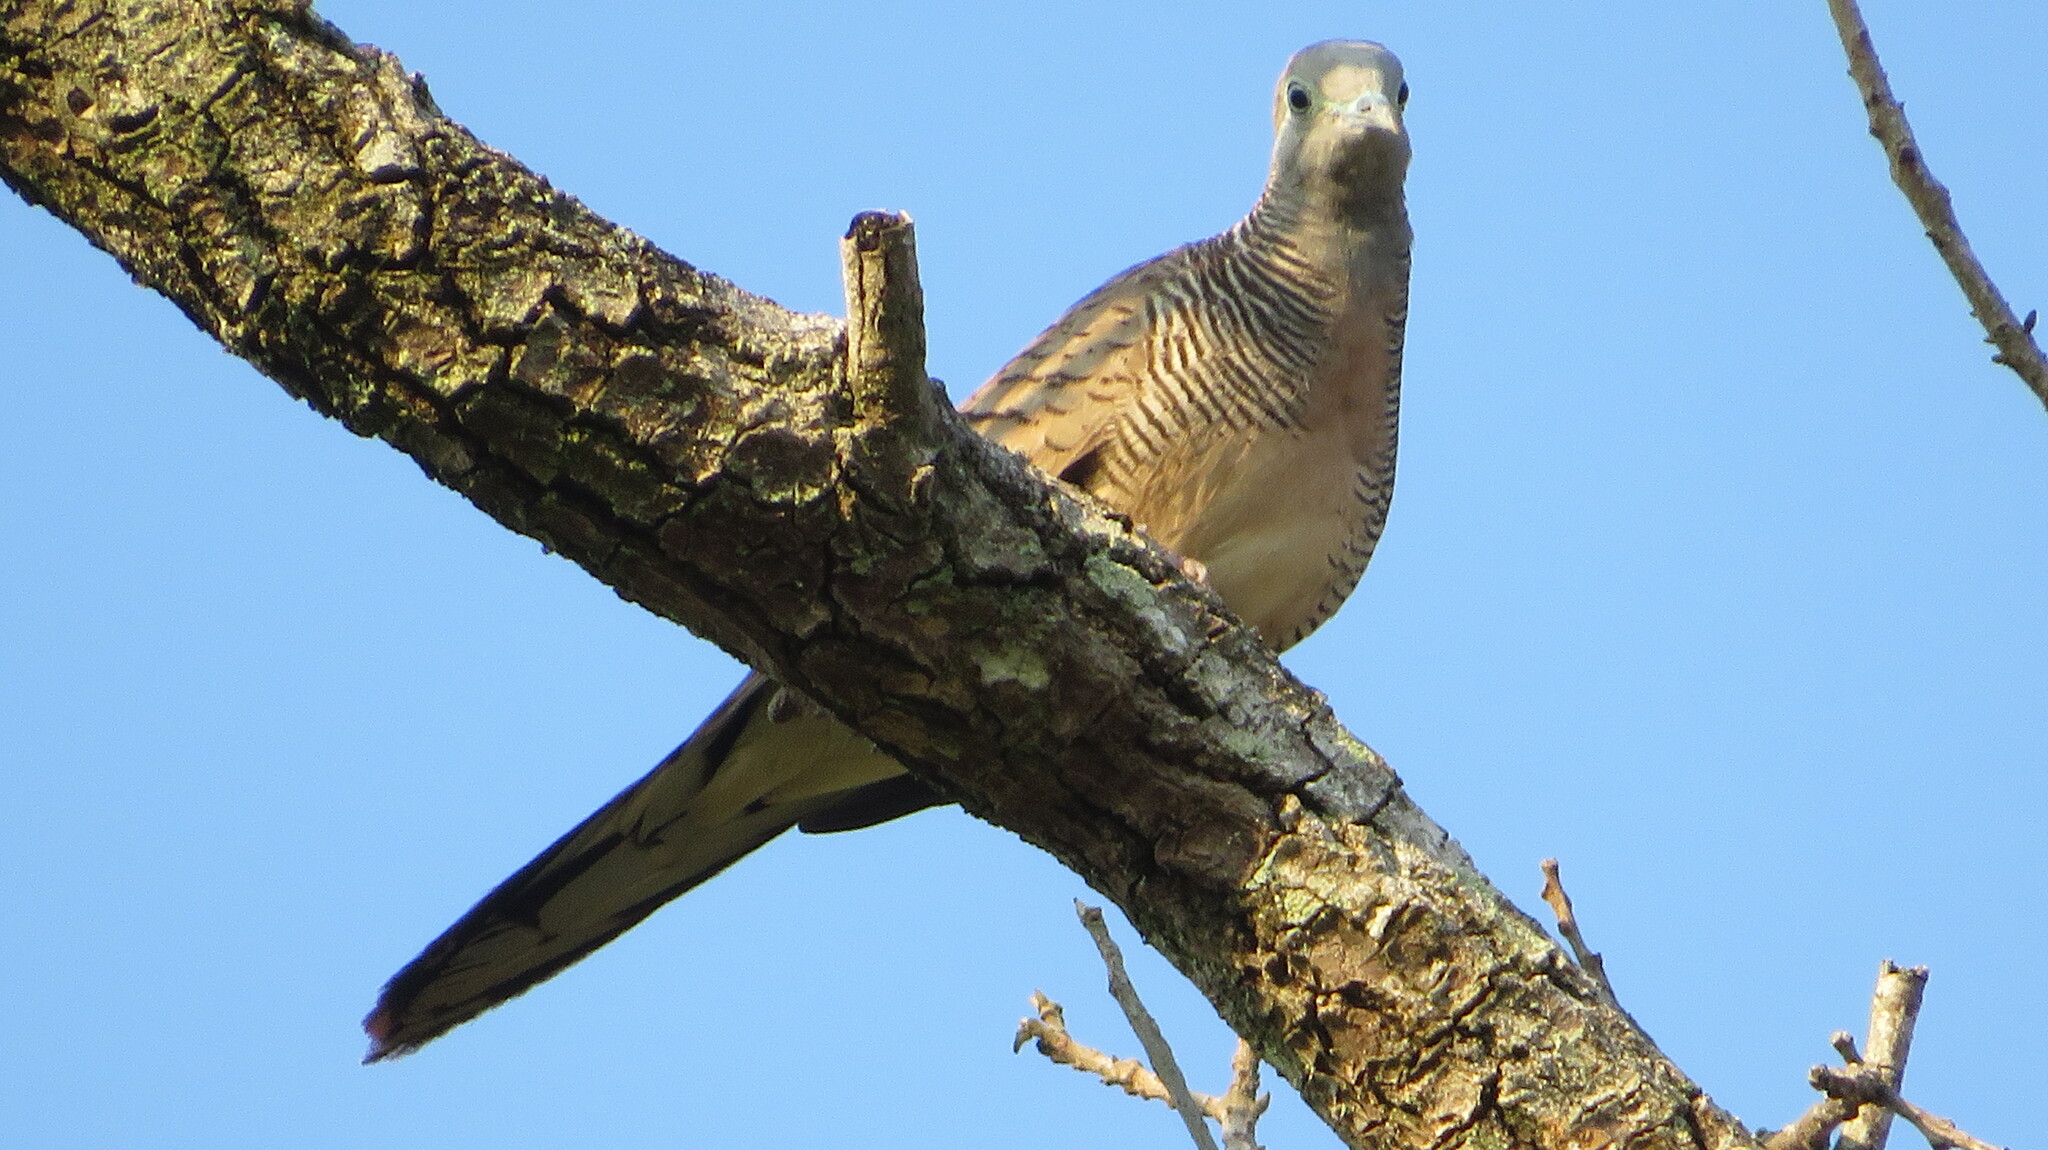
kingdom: Animalia
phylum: Chordata
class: Aves
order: Columbiformes
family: Columbidae
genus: Geopelia
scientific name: Geopelia striata
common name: Zebra dove
